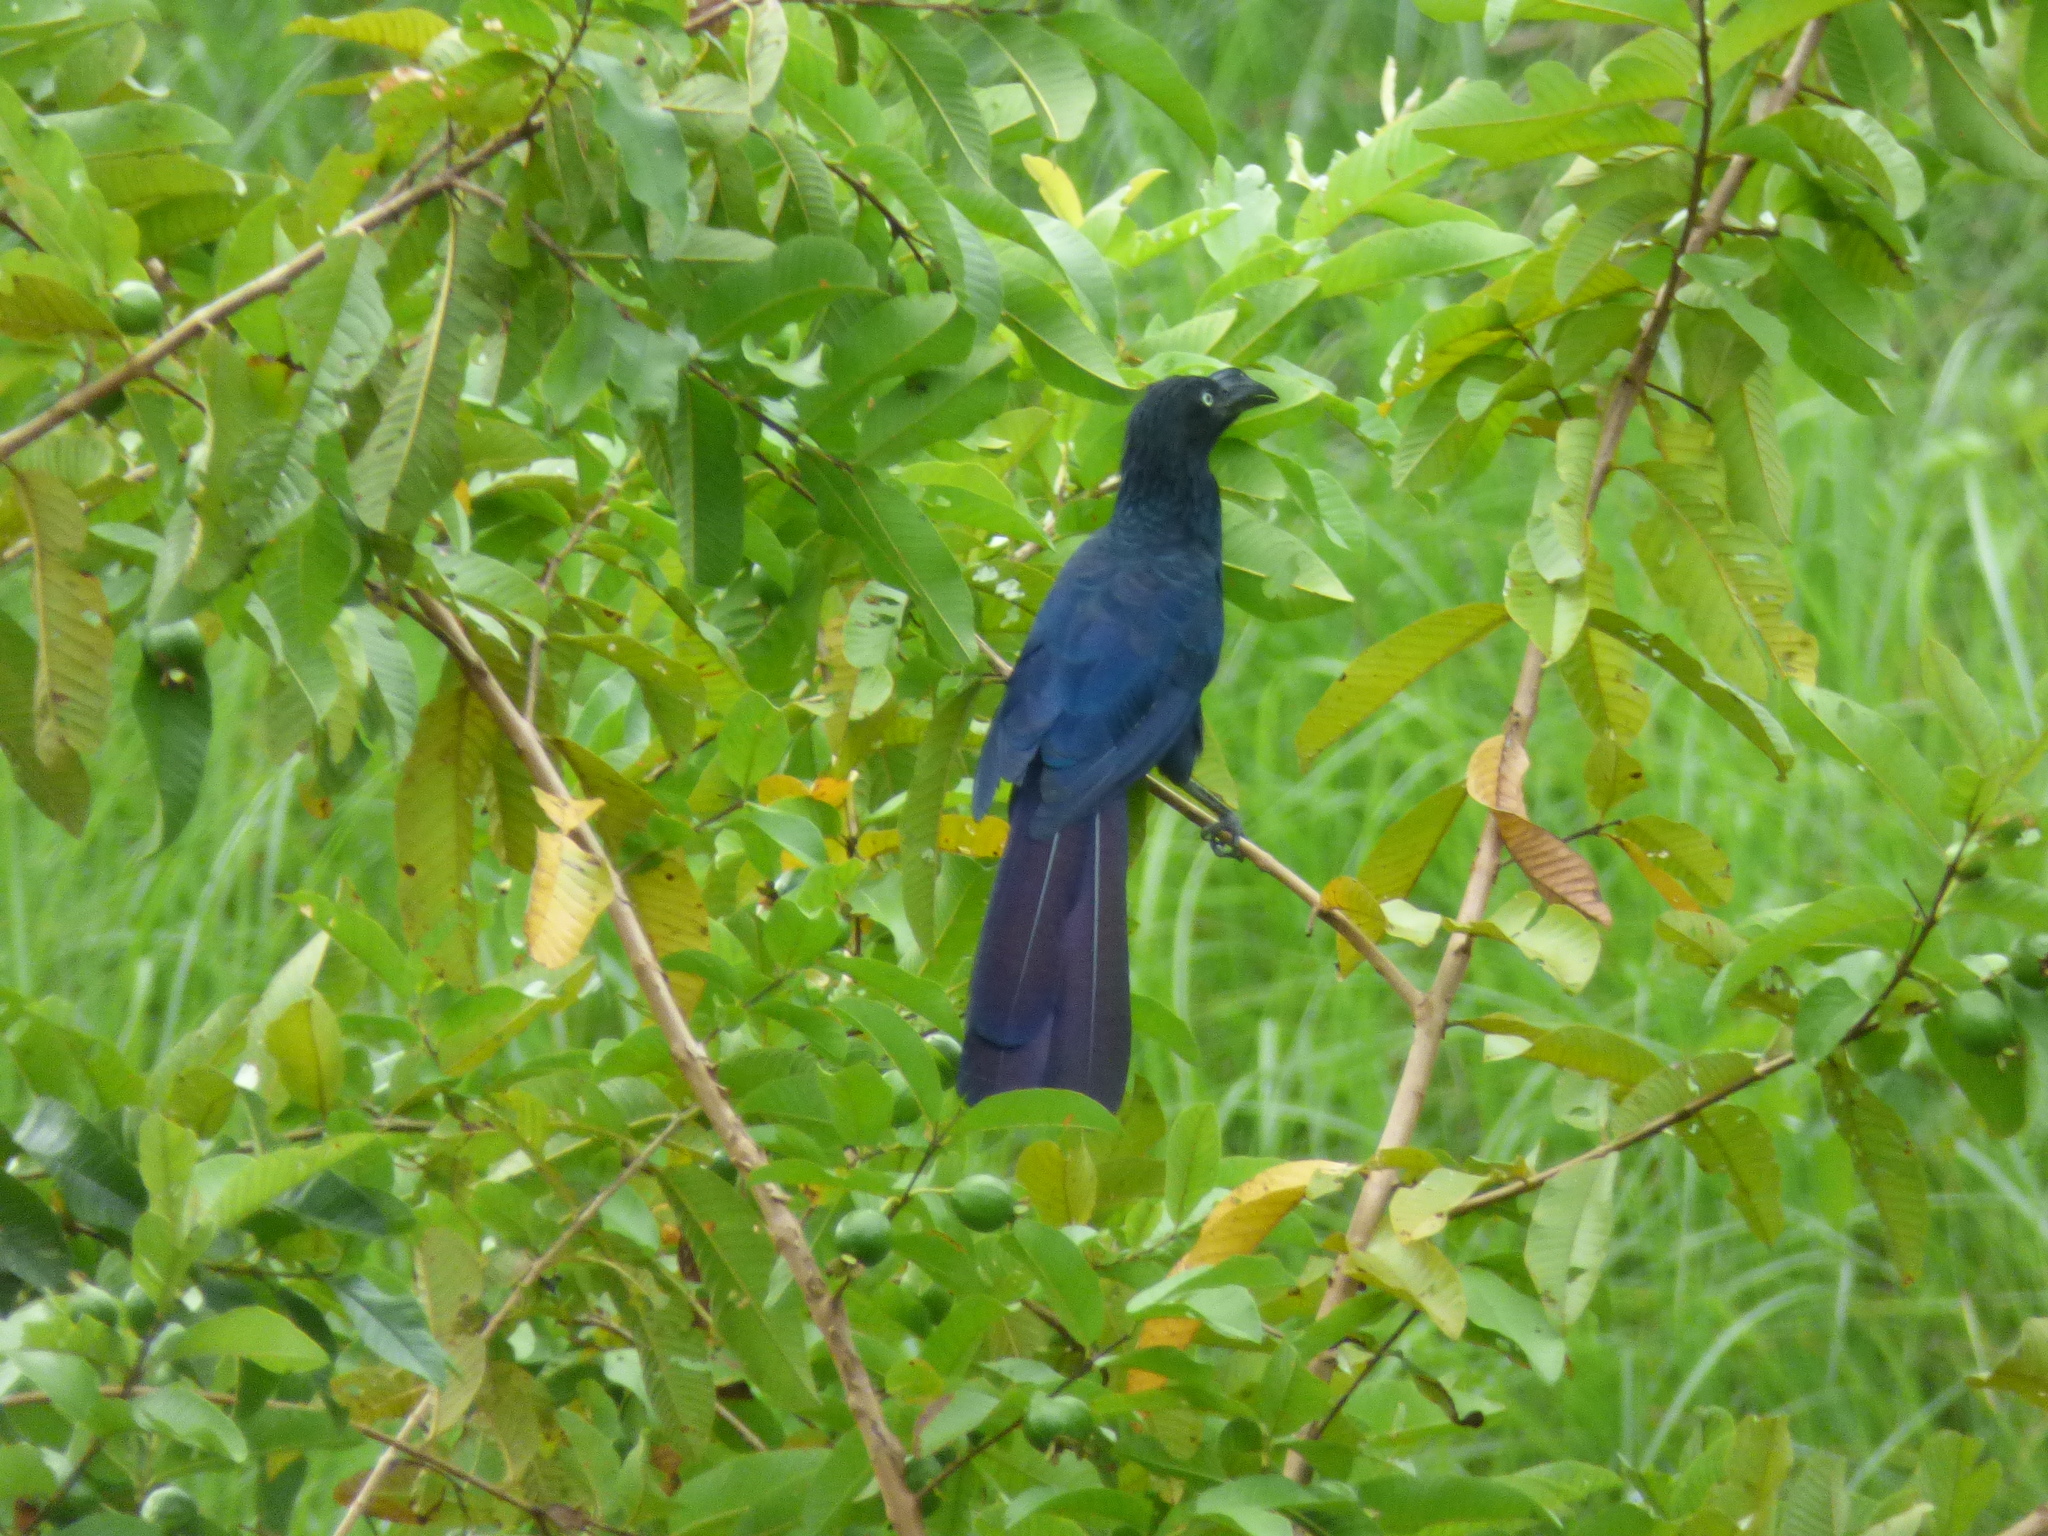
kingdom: Animalia
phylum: Chordata
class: Aves
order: Cuculiformes
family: Cuculidae
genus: Crotophaga
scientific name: Crotophaga major
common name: Greater ani
